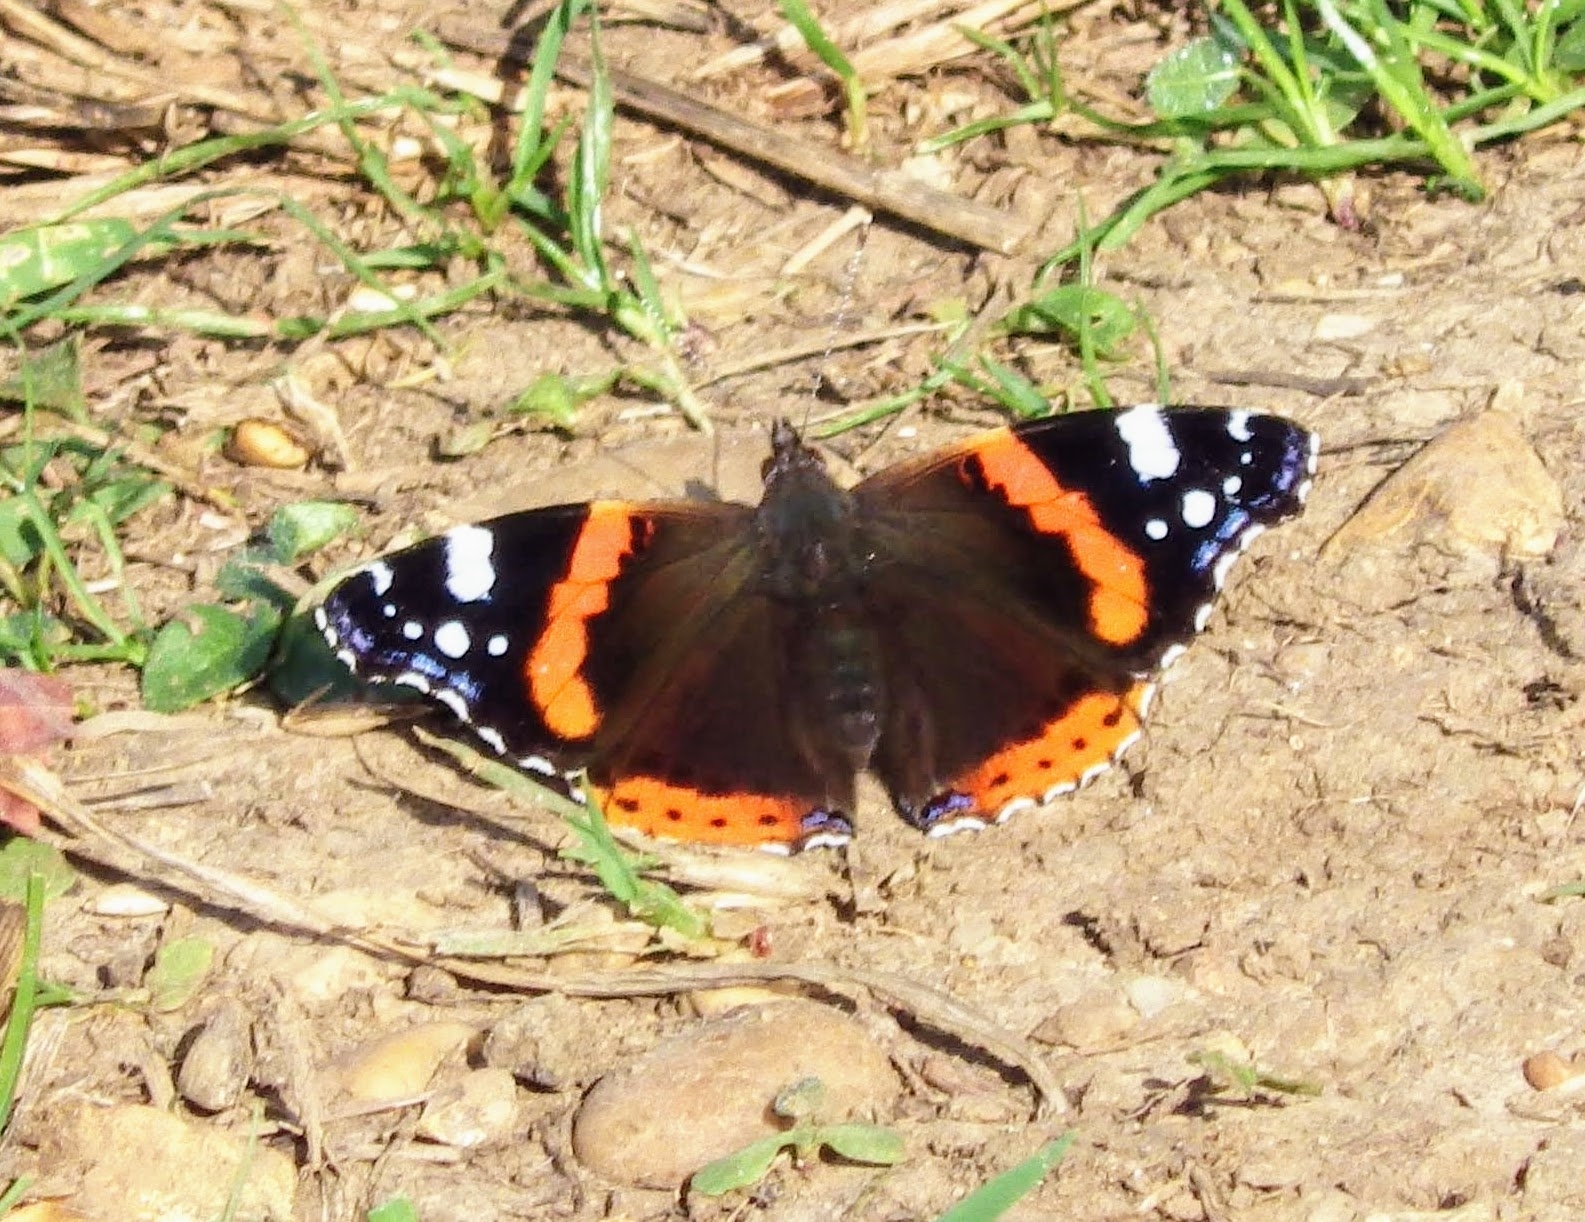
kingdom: Animalia
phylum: Arthropoda
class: Insecta
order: Lepidoptera
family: Nymphalidae
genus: Vanessa
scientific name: Vanessa atalanta
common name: Red admiral
